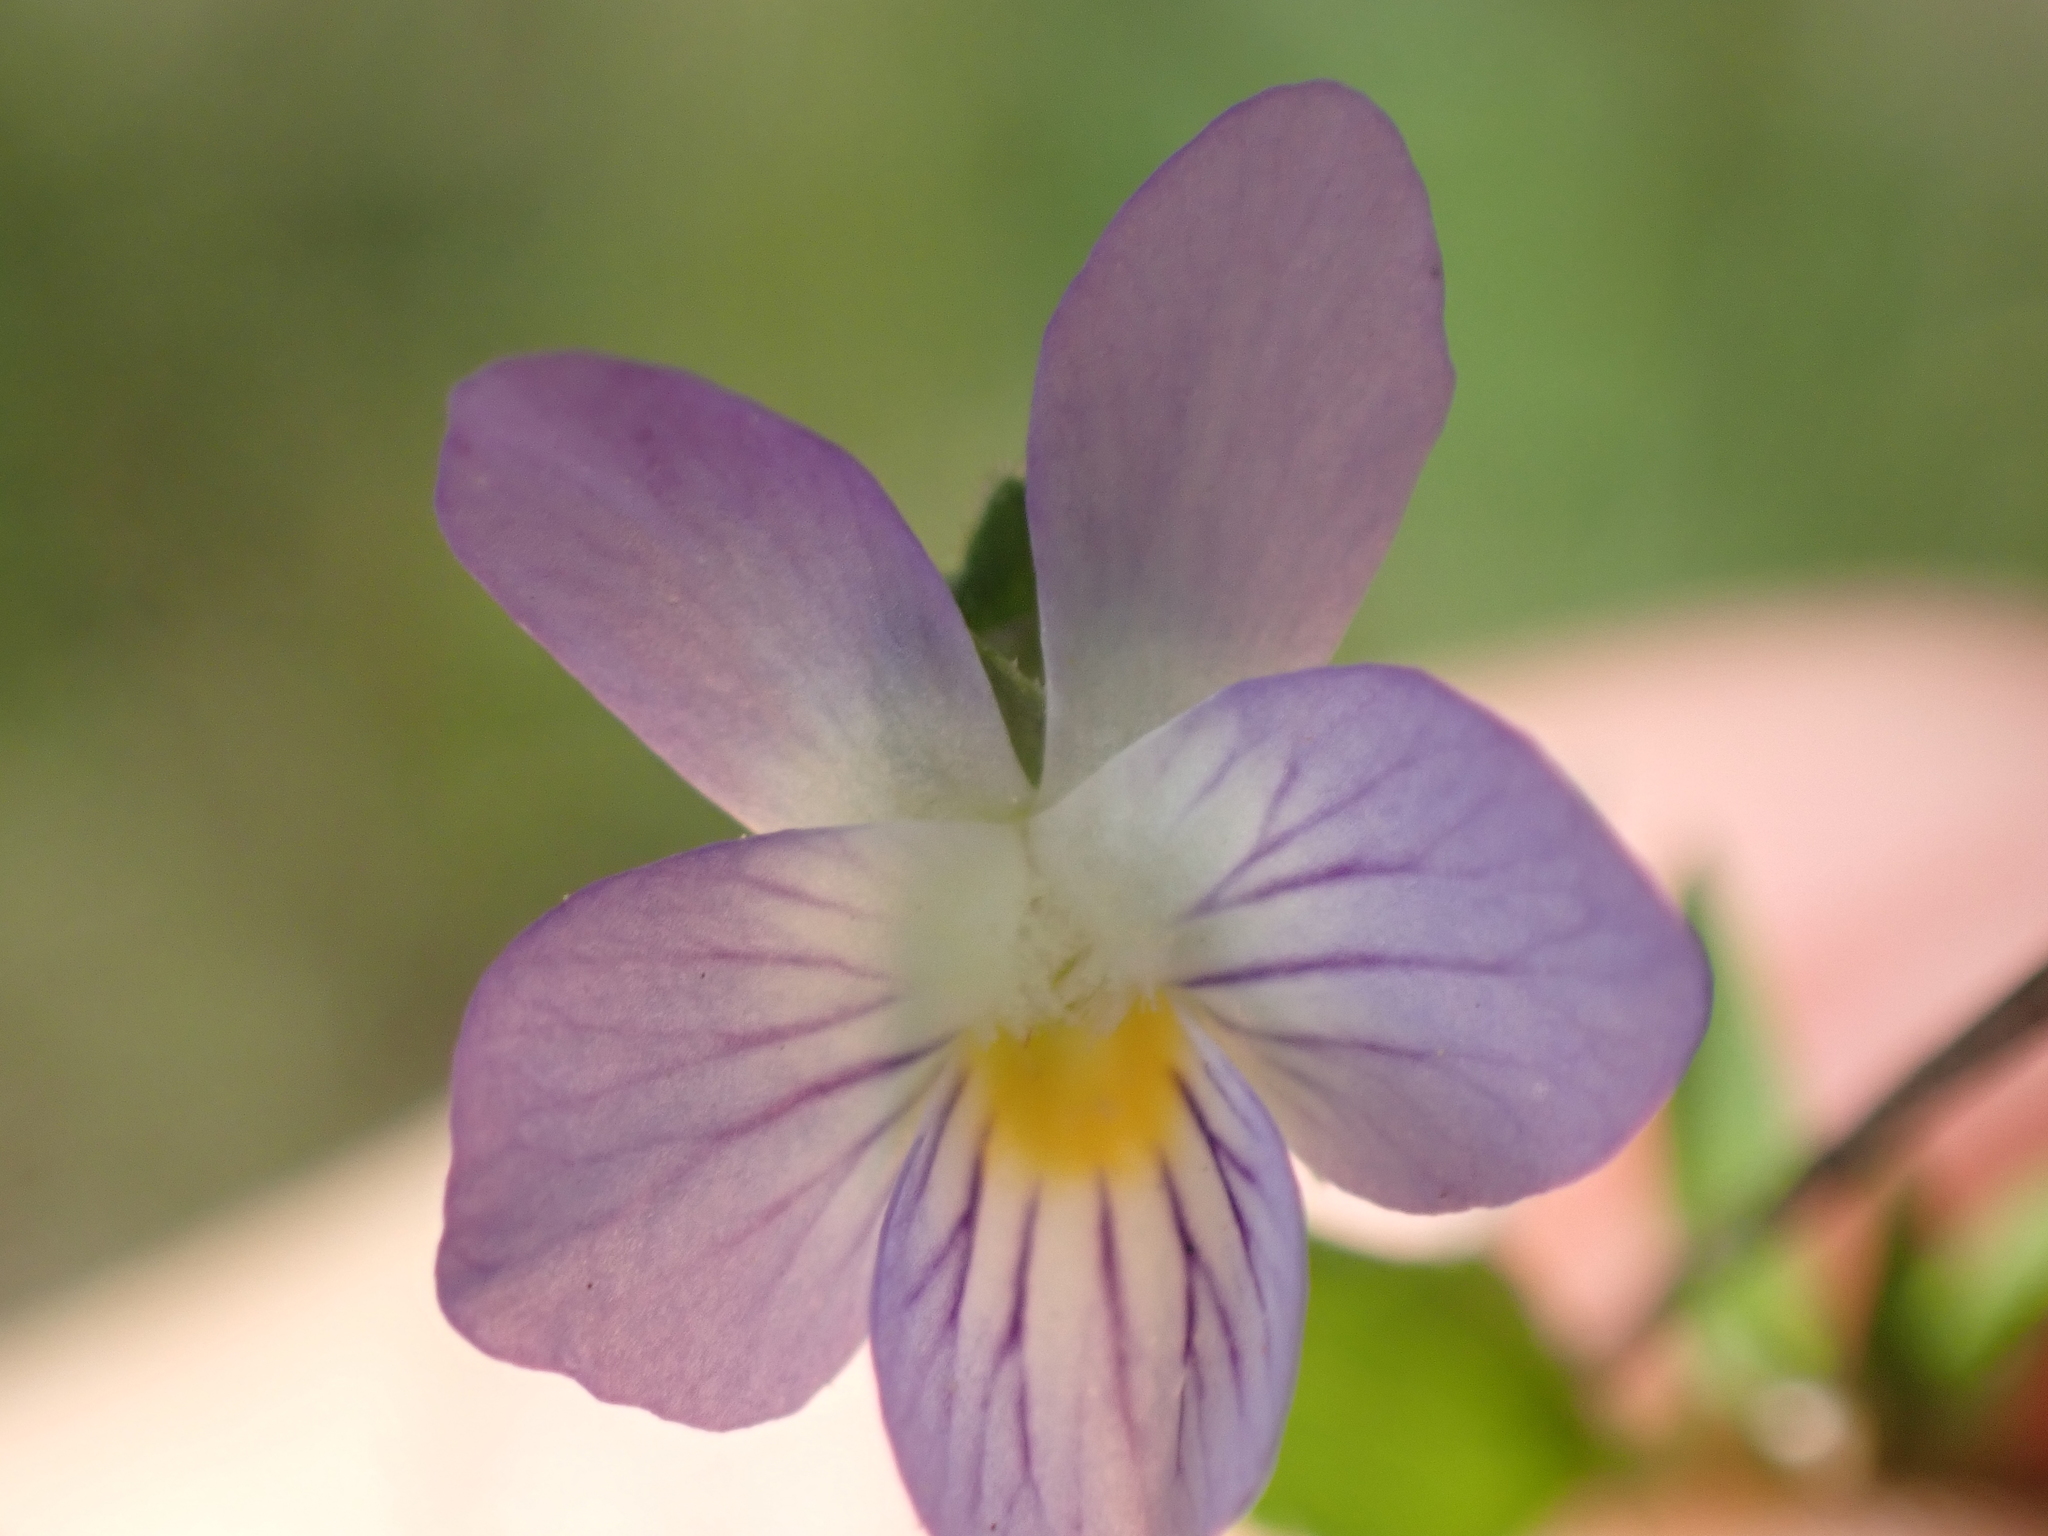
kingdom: Plantae
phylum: Tracheophyta
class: Magnoliopsida
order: Malpighiales
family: Violaceae
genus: Viola
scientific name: Viola rafinesquei
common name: American field pansy
